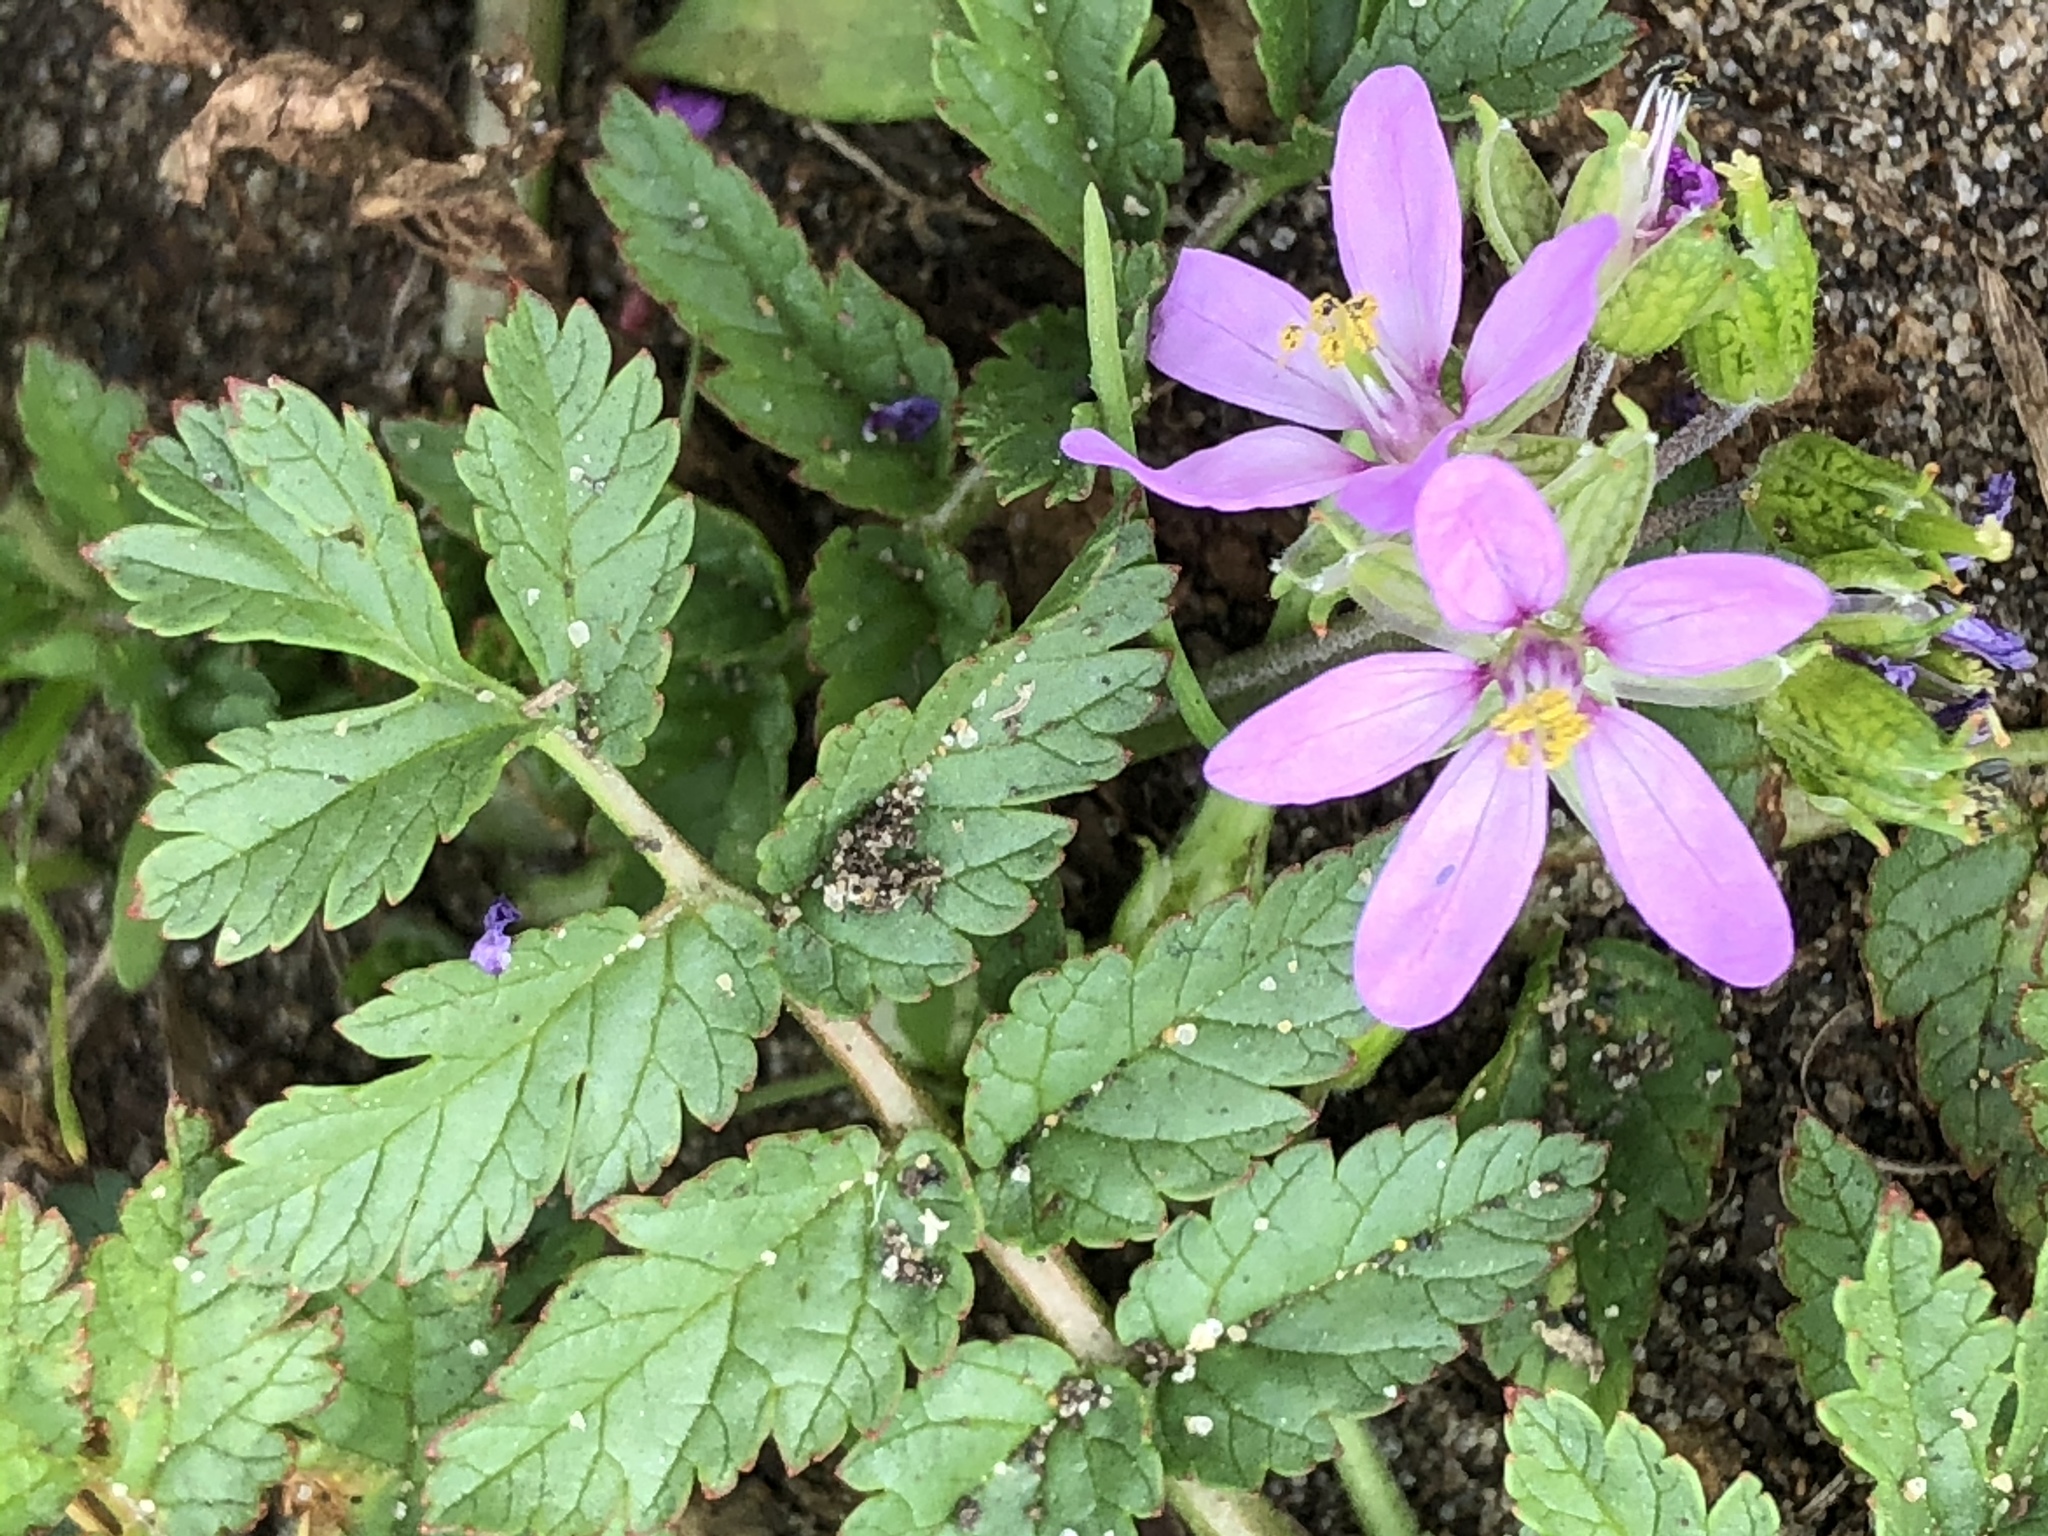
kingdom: Plantae
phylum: Tracheophyta
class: Magnoliopsida
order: Geraniales
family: Geraniaceae
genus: Erodium
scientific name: Erodium moschatum
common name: Musk stork's-bill
